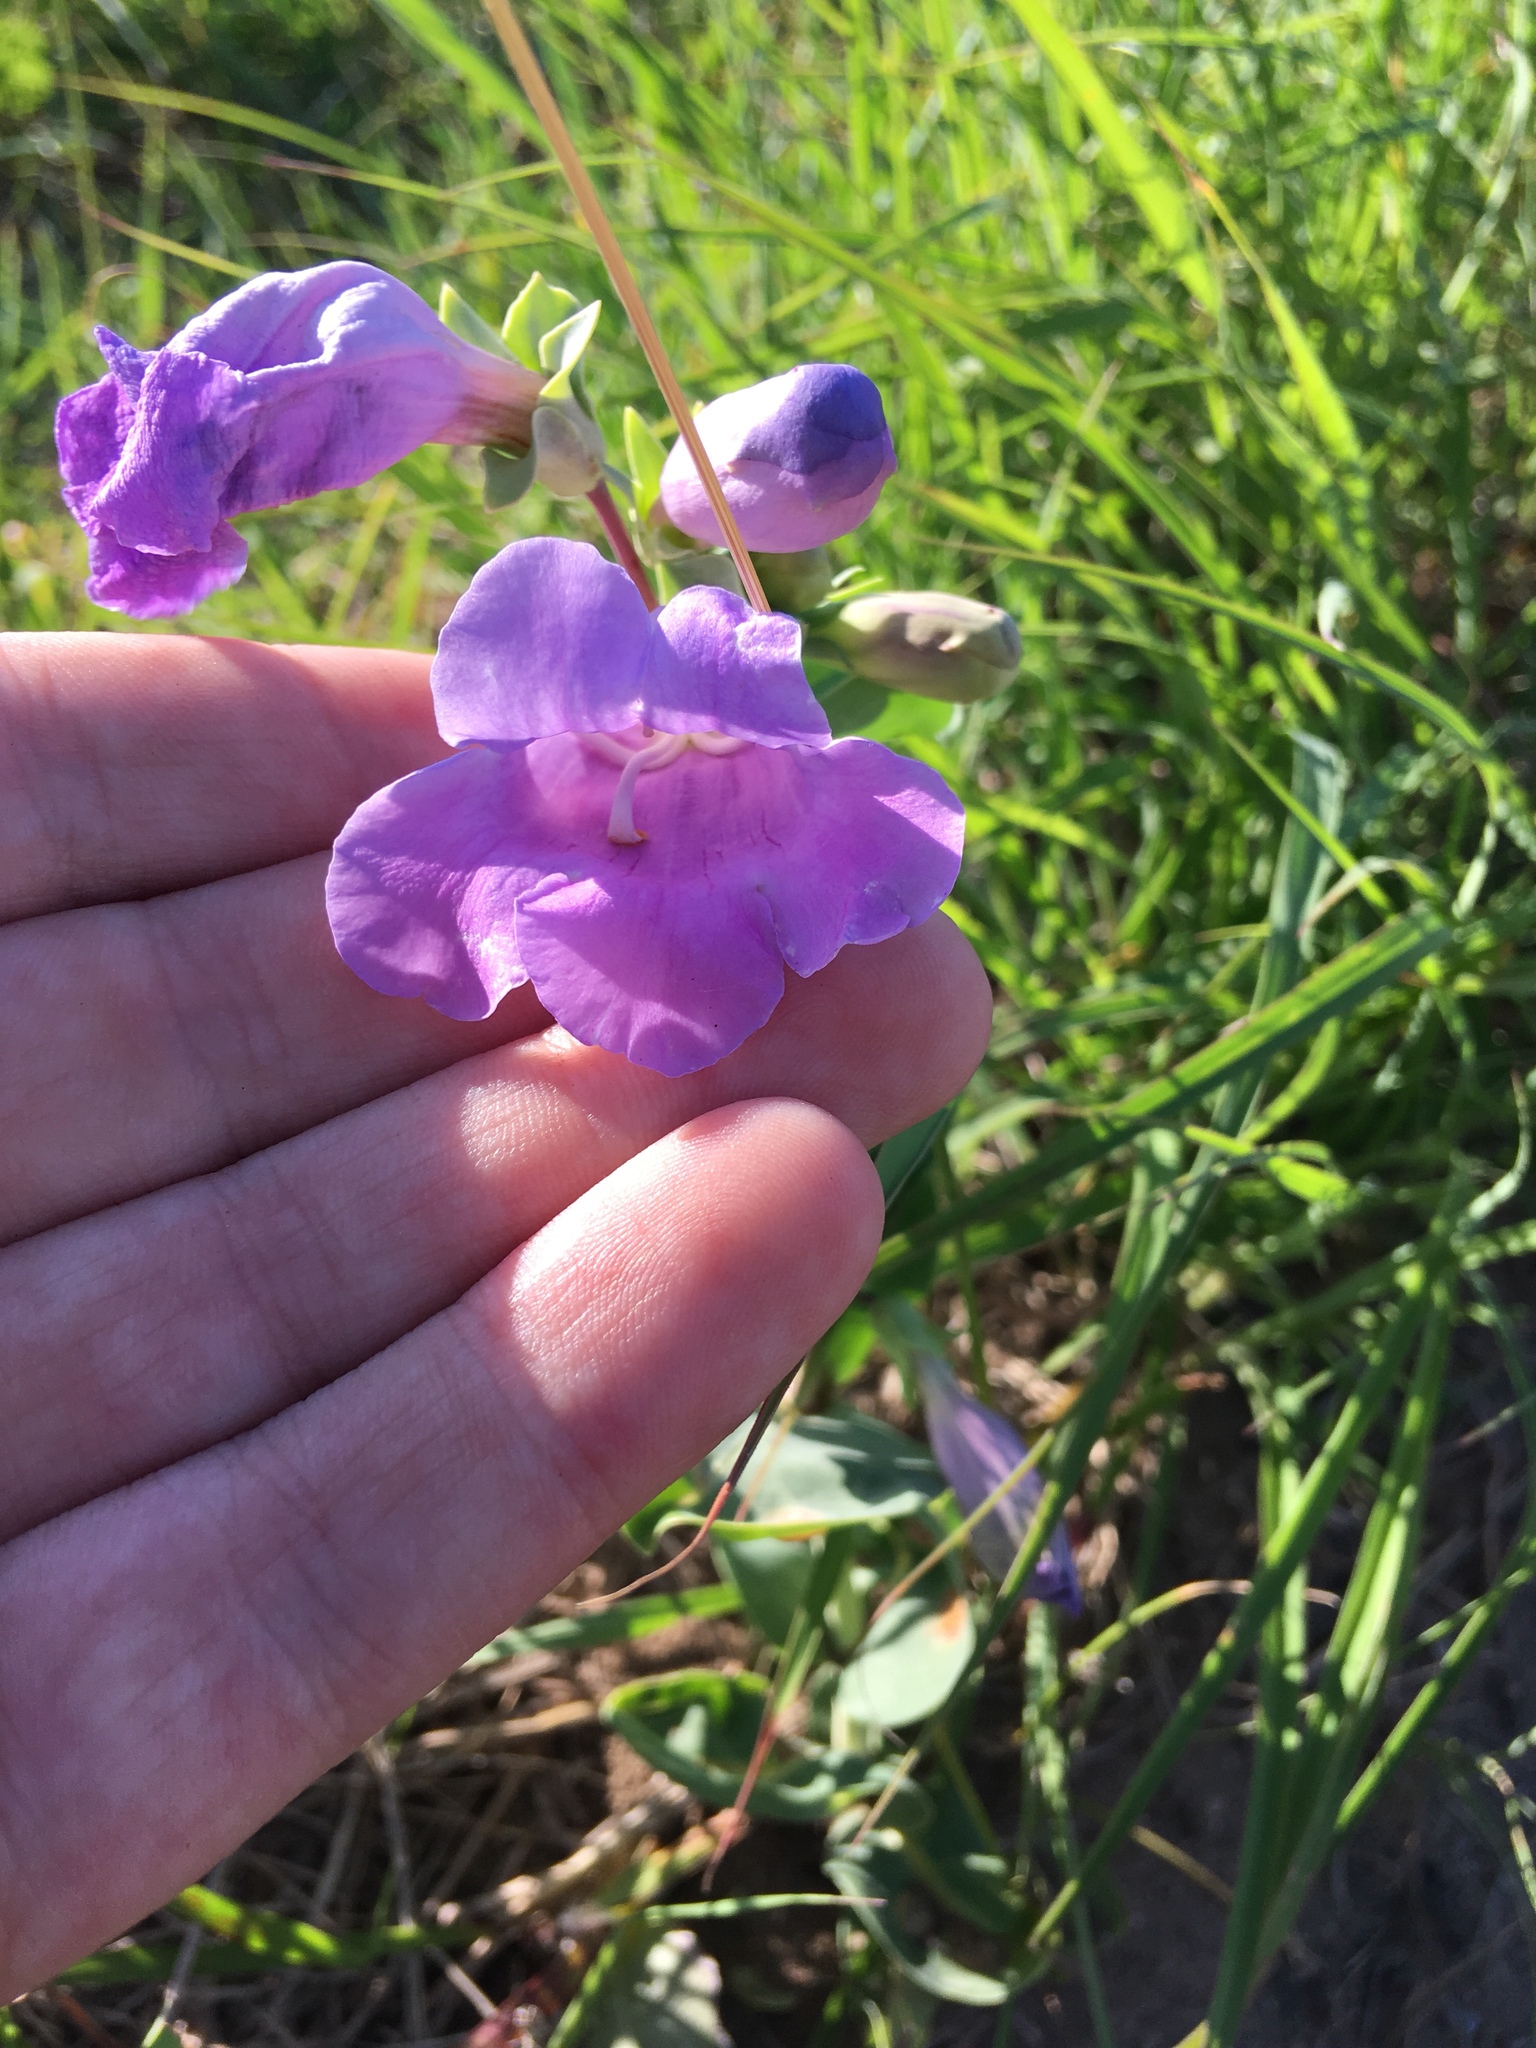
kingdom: Plantae
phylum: Tracheophyta
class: Magnoliopsida
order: Lamiales
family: Plantaginaceae
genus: Penstemon
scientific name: Penstemon
